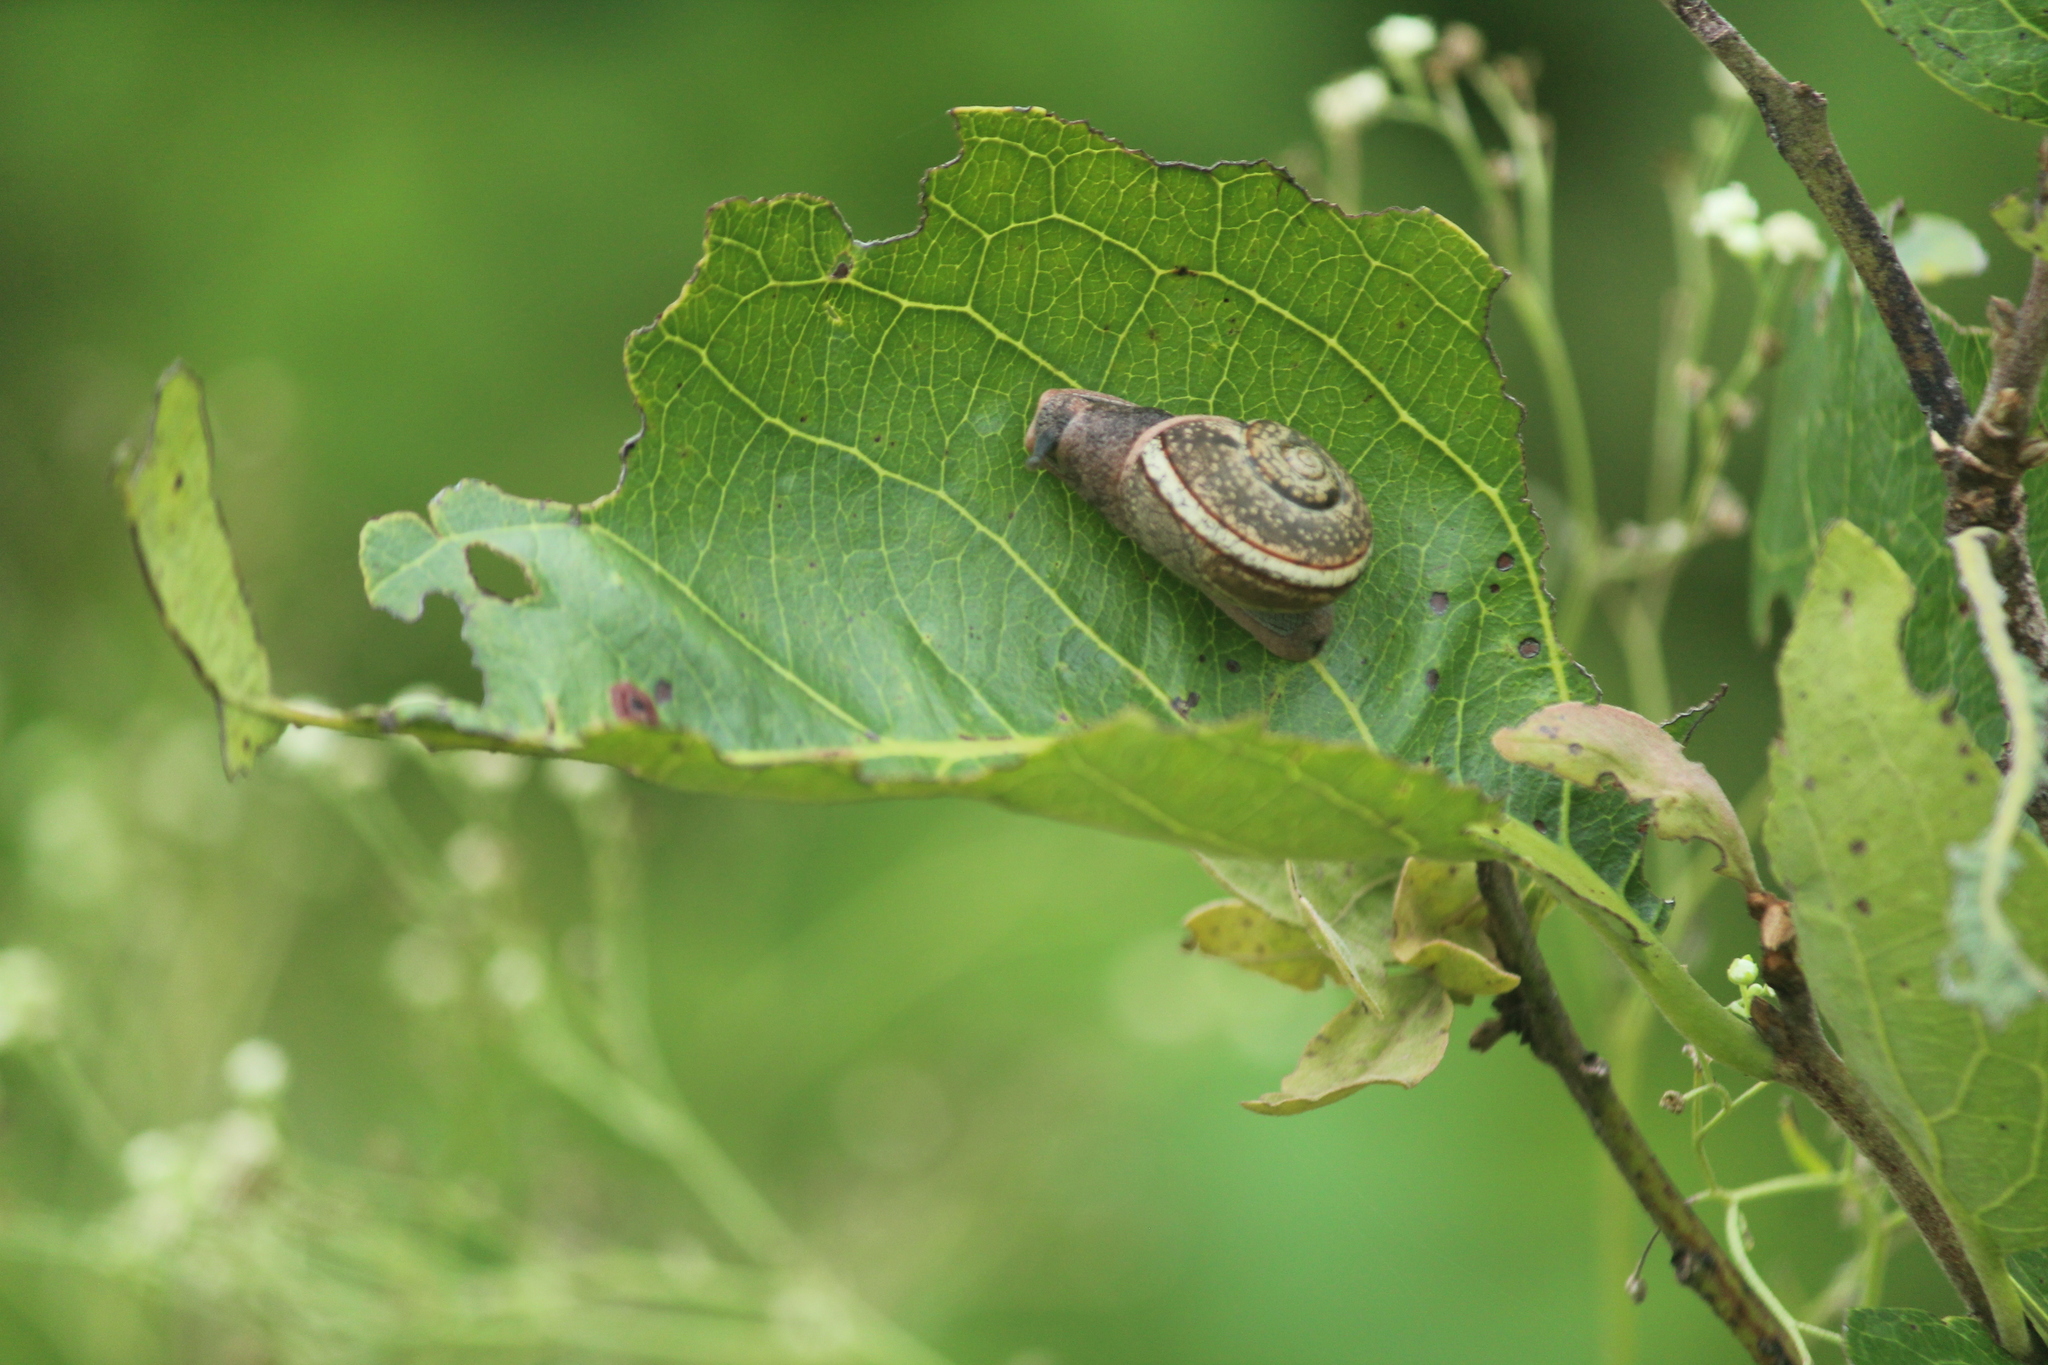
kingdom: Animalia
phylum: Mollusca
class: Gastropoda
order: Stylommatophora
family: Ariophantidae
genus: Ariophanta
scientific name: Ariophanta exilis
